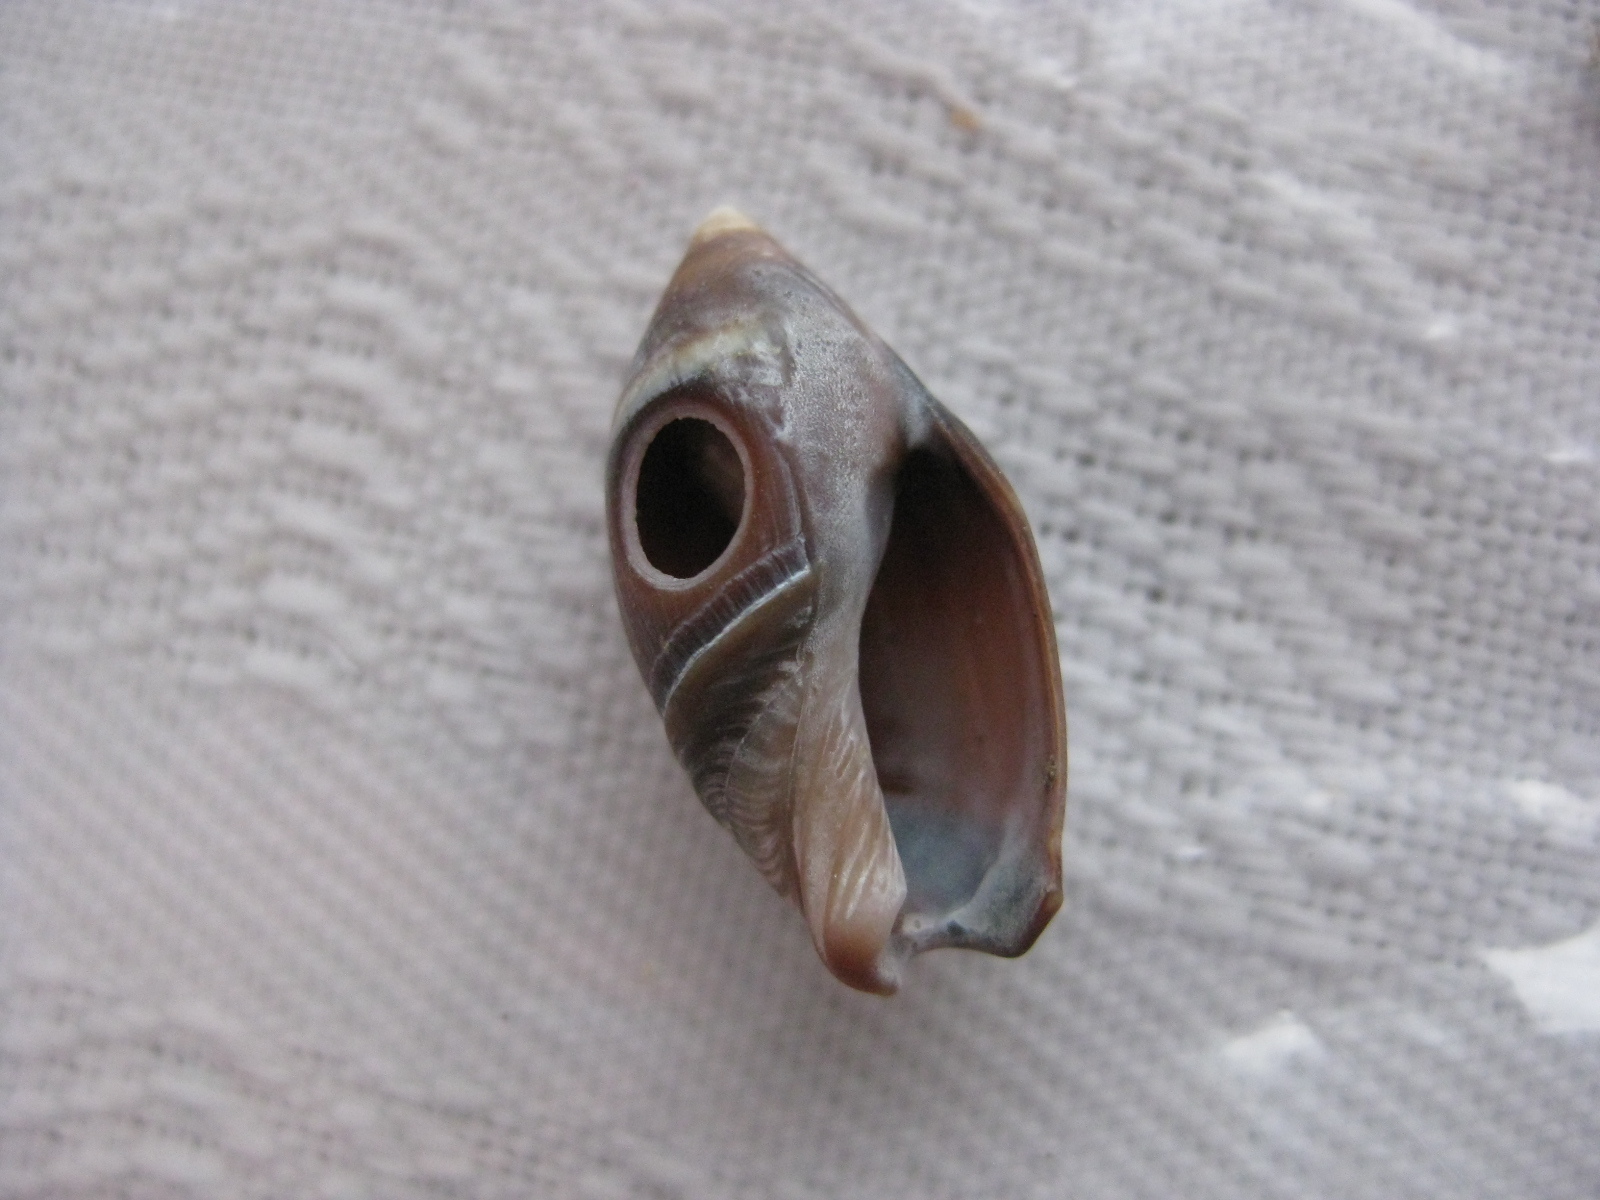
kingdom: Animalia
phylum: Mollusca
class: Gastropoda
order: Neogastropoda
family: Ancillariidae
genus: Amalda
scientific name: Amalda australis
